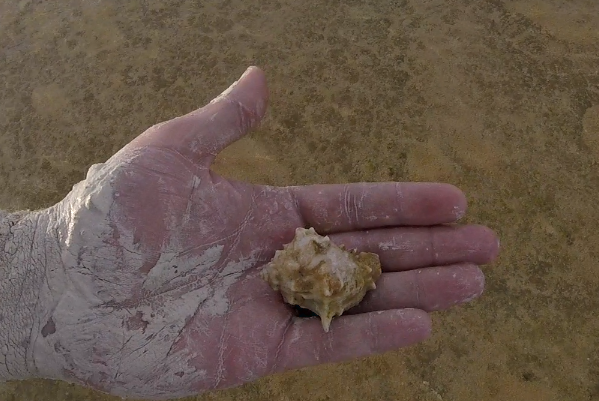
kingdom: Animalia
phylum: Mollusca
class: Gastropoda
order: Neogastropoda
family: Melongenidae
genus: Melongena
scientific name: Melongena bispinosa
